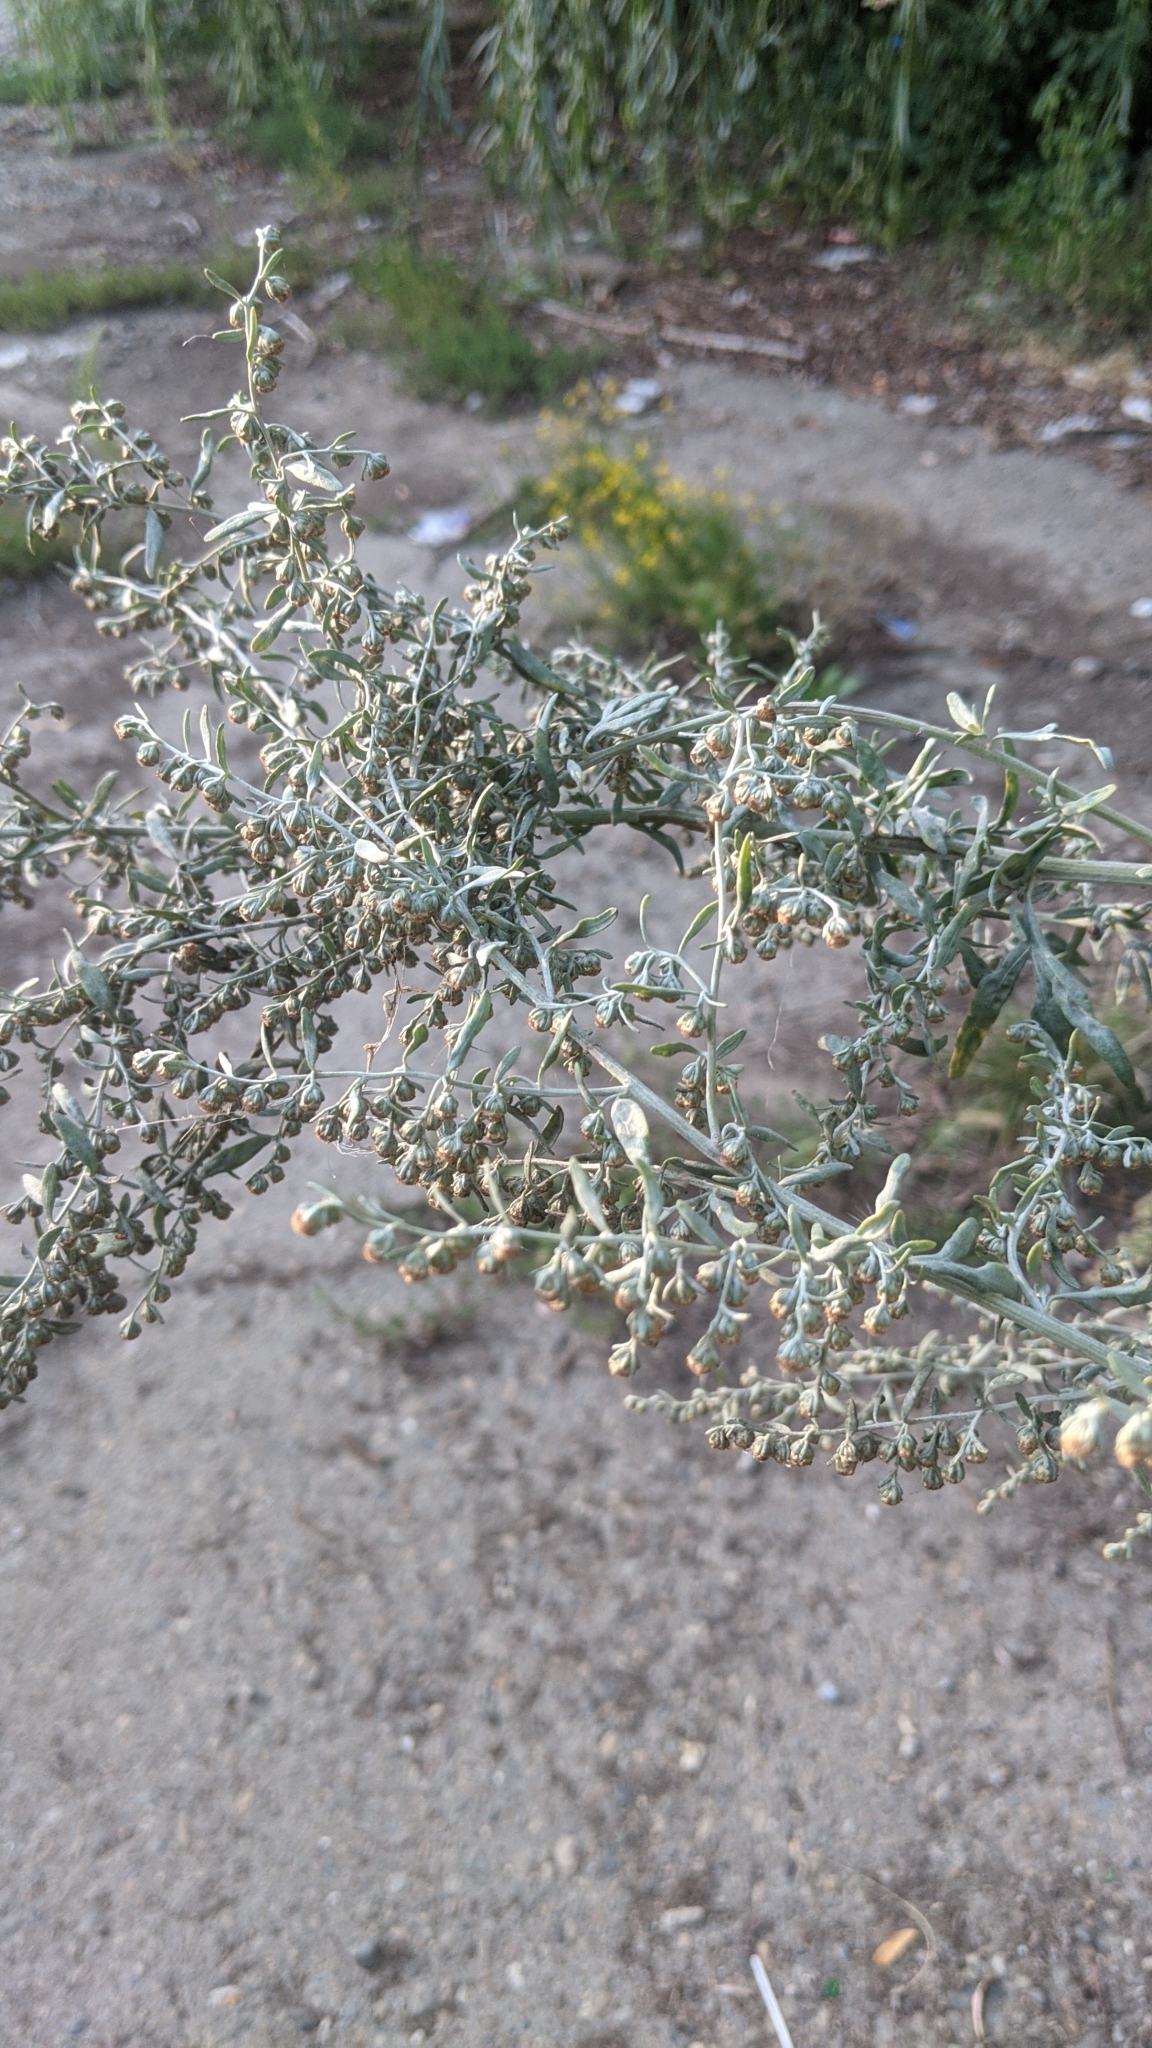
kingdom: Plantae
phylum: Tracheophyta
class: Magnoliopsida
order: Asterales
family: Asteraceae
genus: Artemisia
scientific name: Artemisia absinthium
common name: Wormwood
